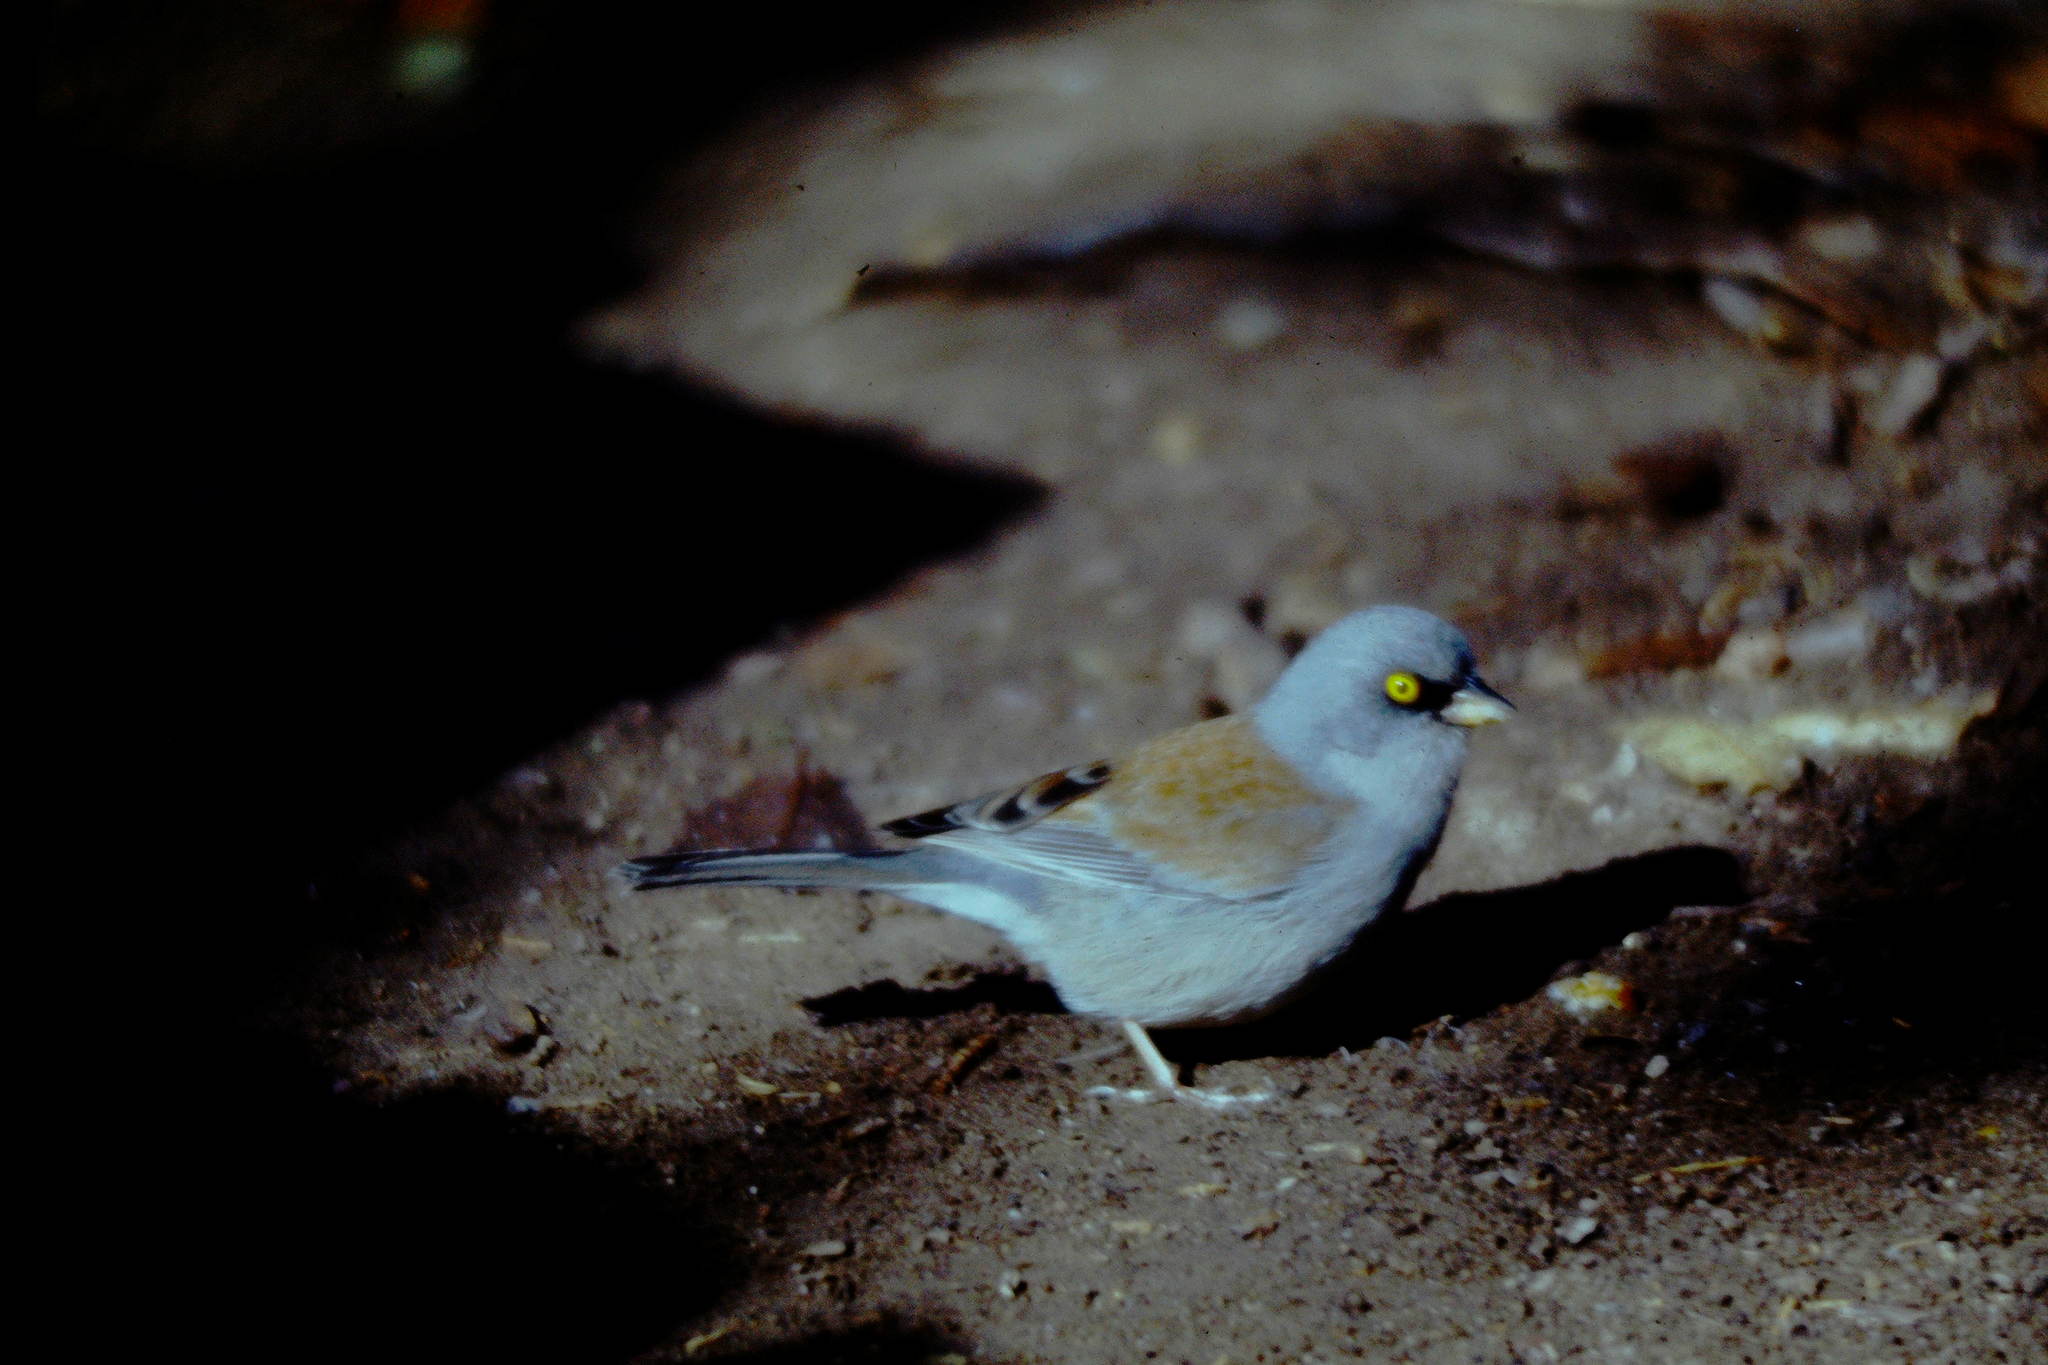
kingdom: Animalia
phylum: Chordata
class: Aves
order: Passeriformes
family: Passerellidae
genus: Junco
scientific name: Junco phaeonotus
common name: Yellow-eyed junco
